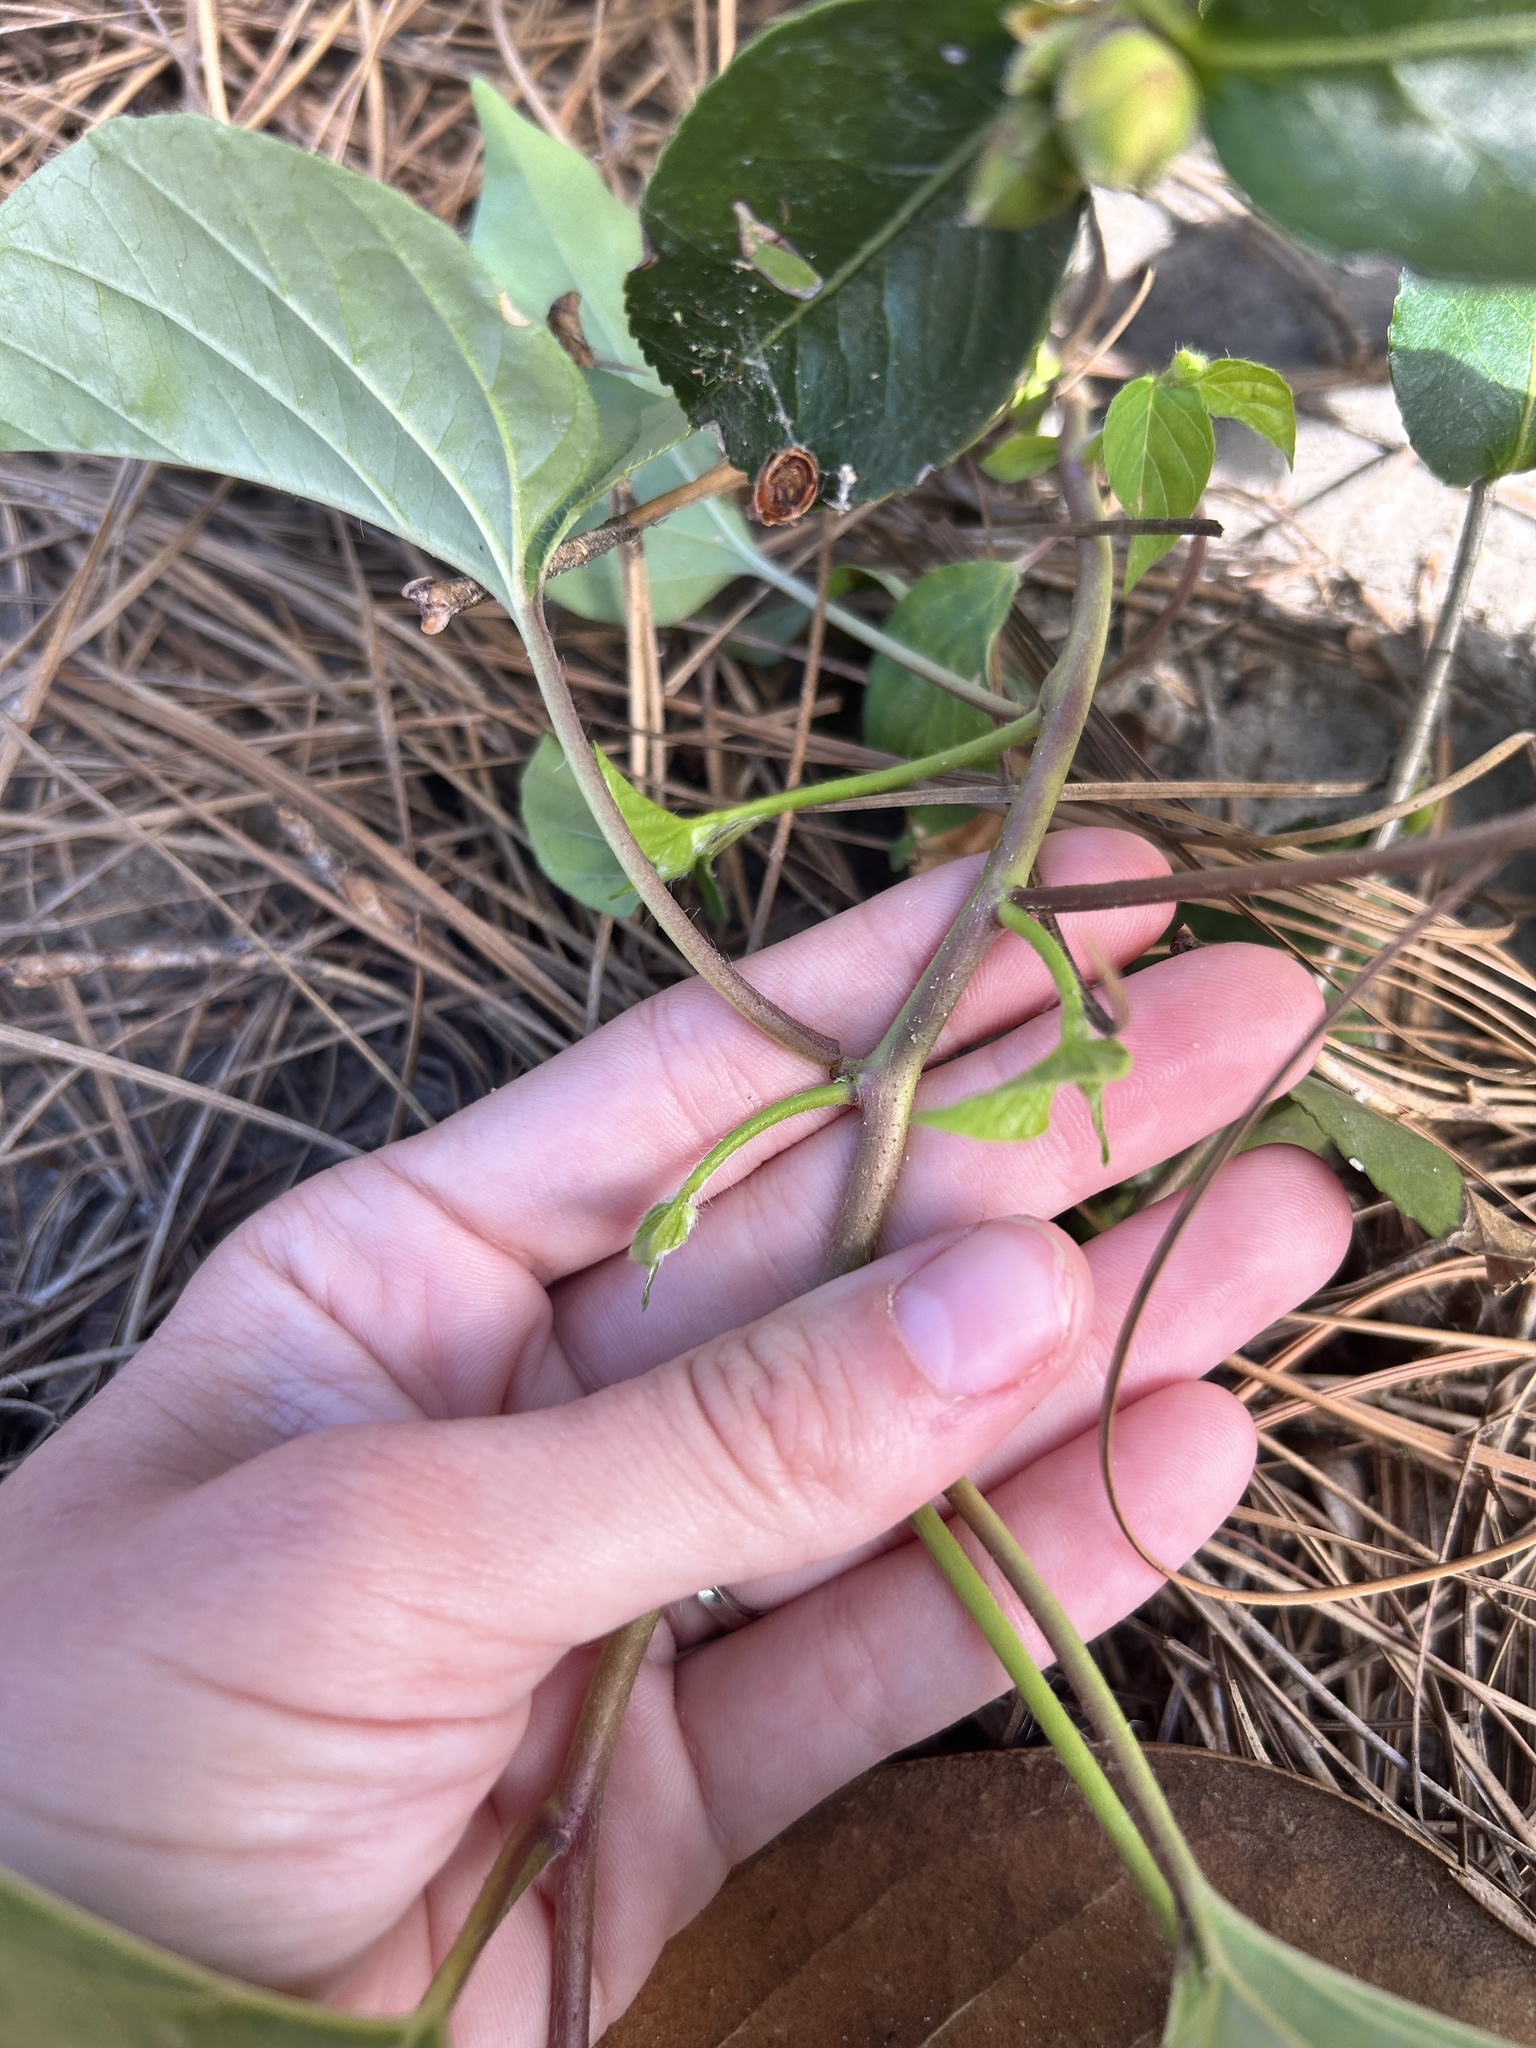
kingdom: Plantae
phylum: Tracheophyta
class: Magnoliopsida
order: Solanales
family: Convolvulaceae
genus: Jacquemontia
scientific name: Jacquemontia tamnifolia
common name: Hairy clustervine
